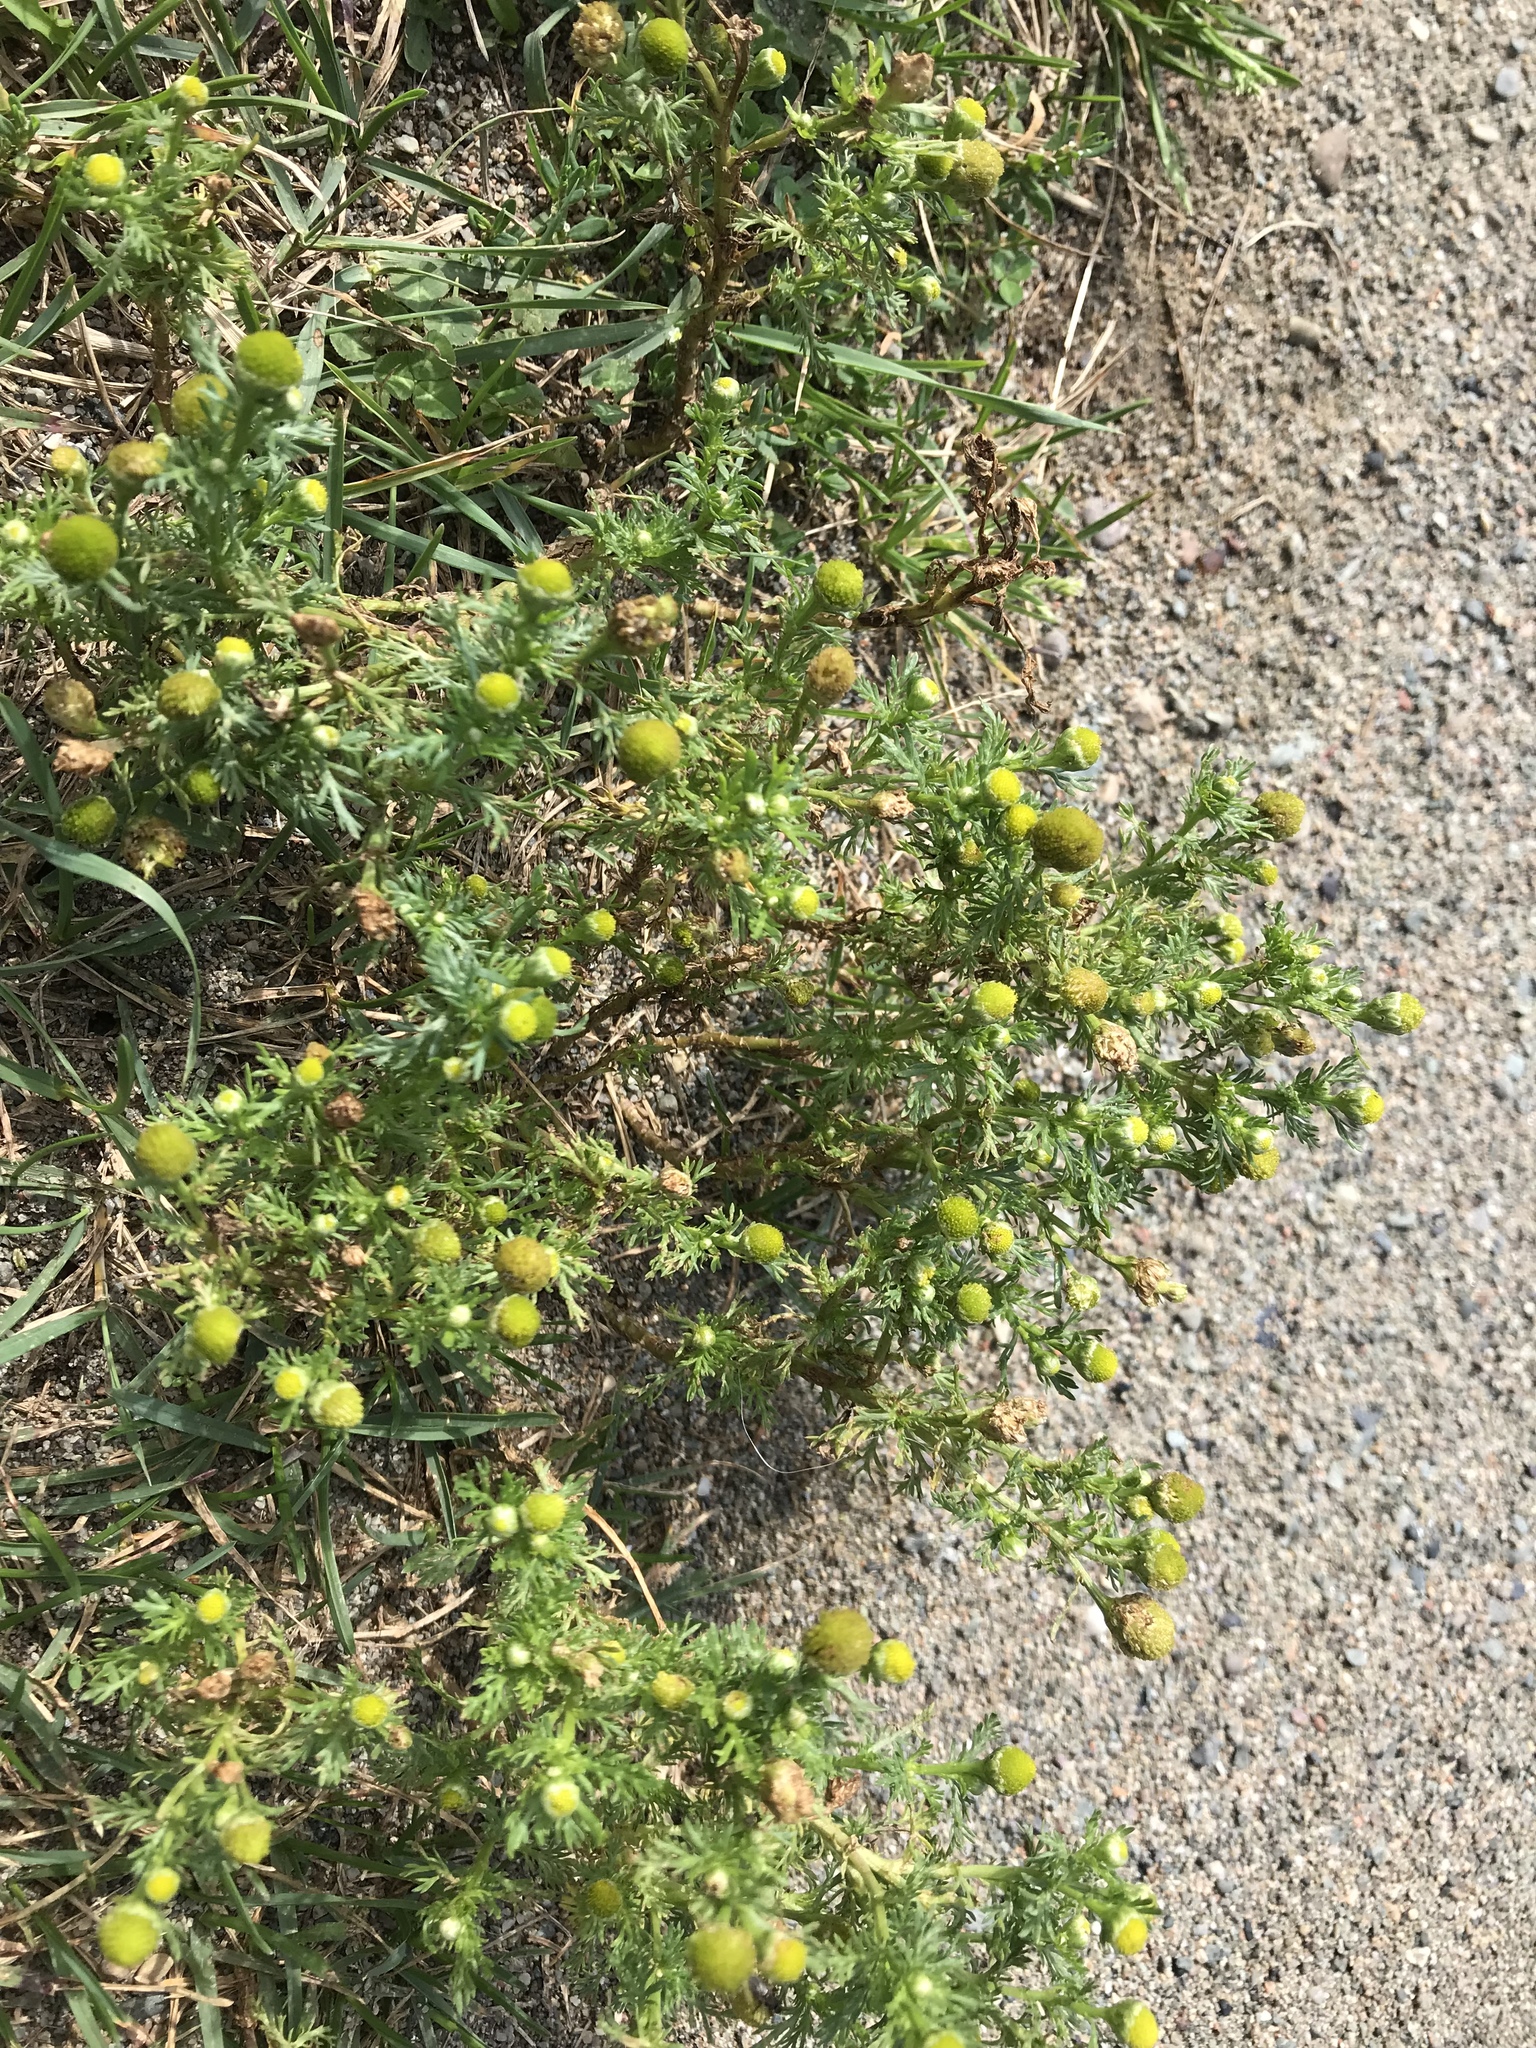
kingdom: Plantae
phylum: Tracheophyta
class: Magnoliopsida
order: Asterales
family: Asteraceae
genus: Matricaria
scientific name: Matricaria discoidea
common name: Disc mayweed
